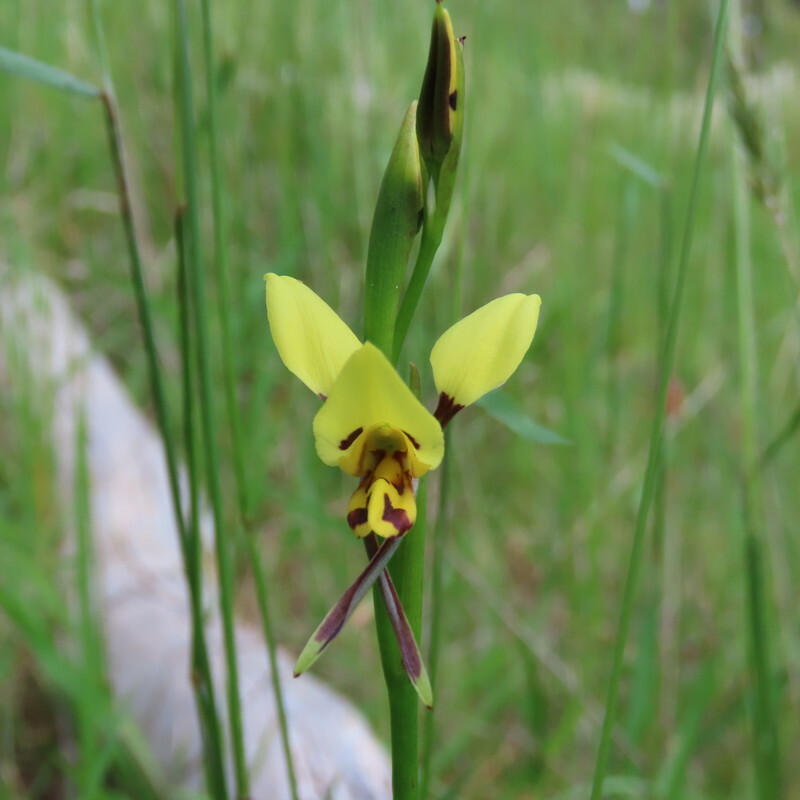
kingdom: Plantae
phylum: Tracheophyta
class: Liliopsida
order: Asparagales
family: Orchidaceae
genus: Diuris
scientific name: Diuris sulphurea
